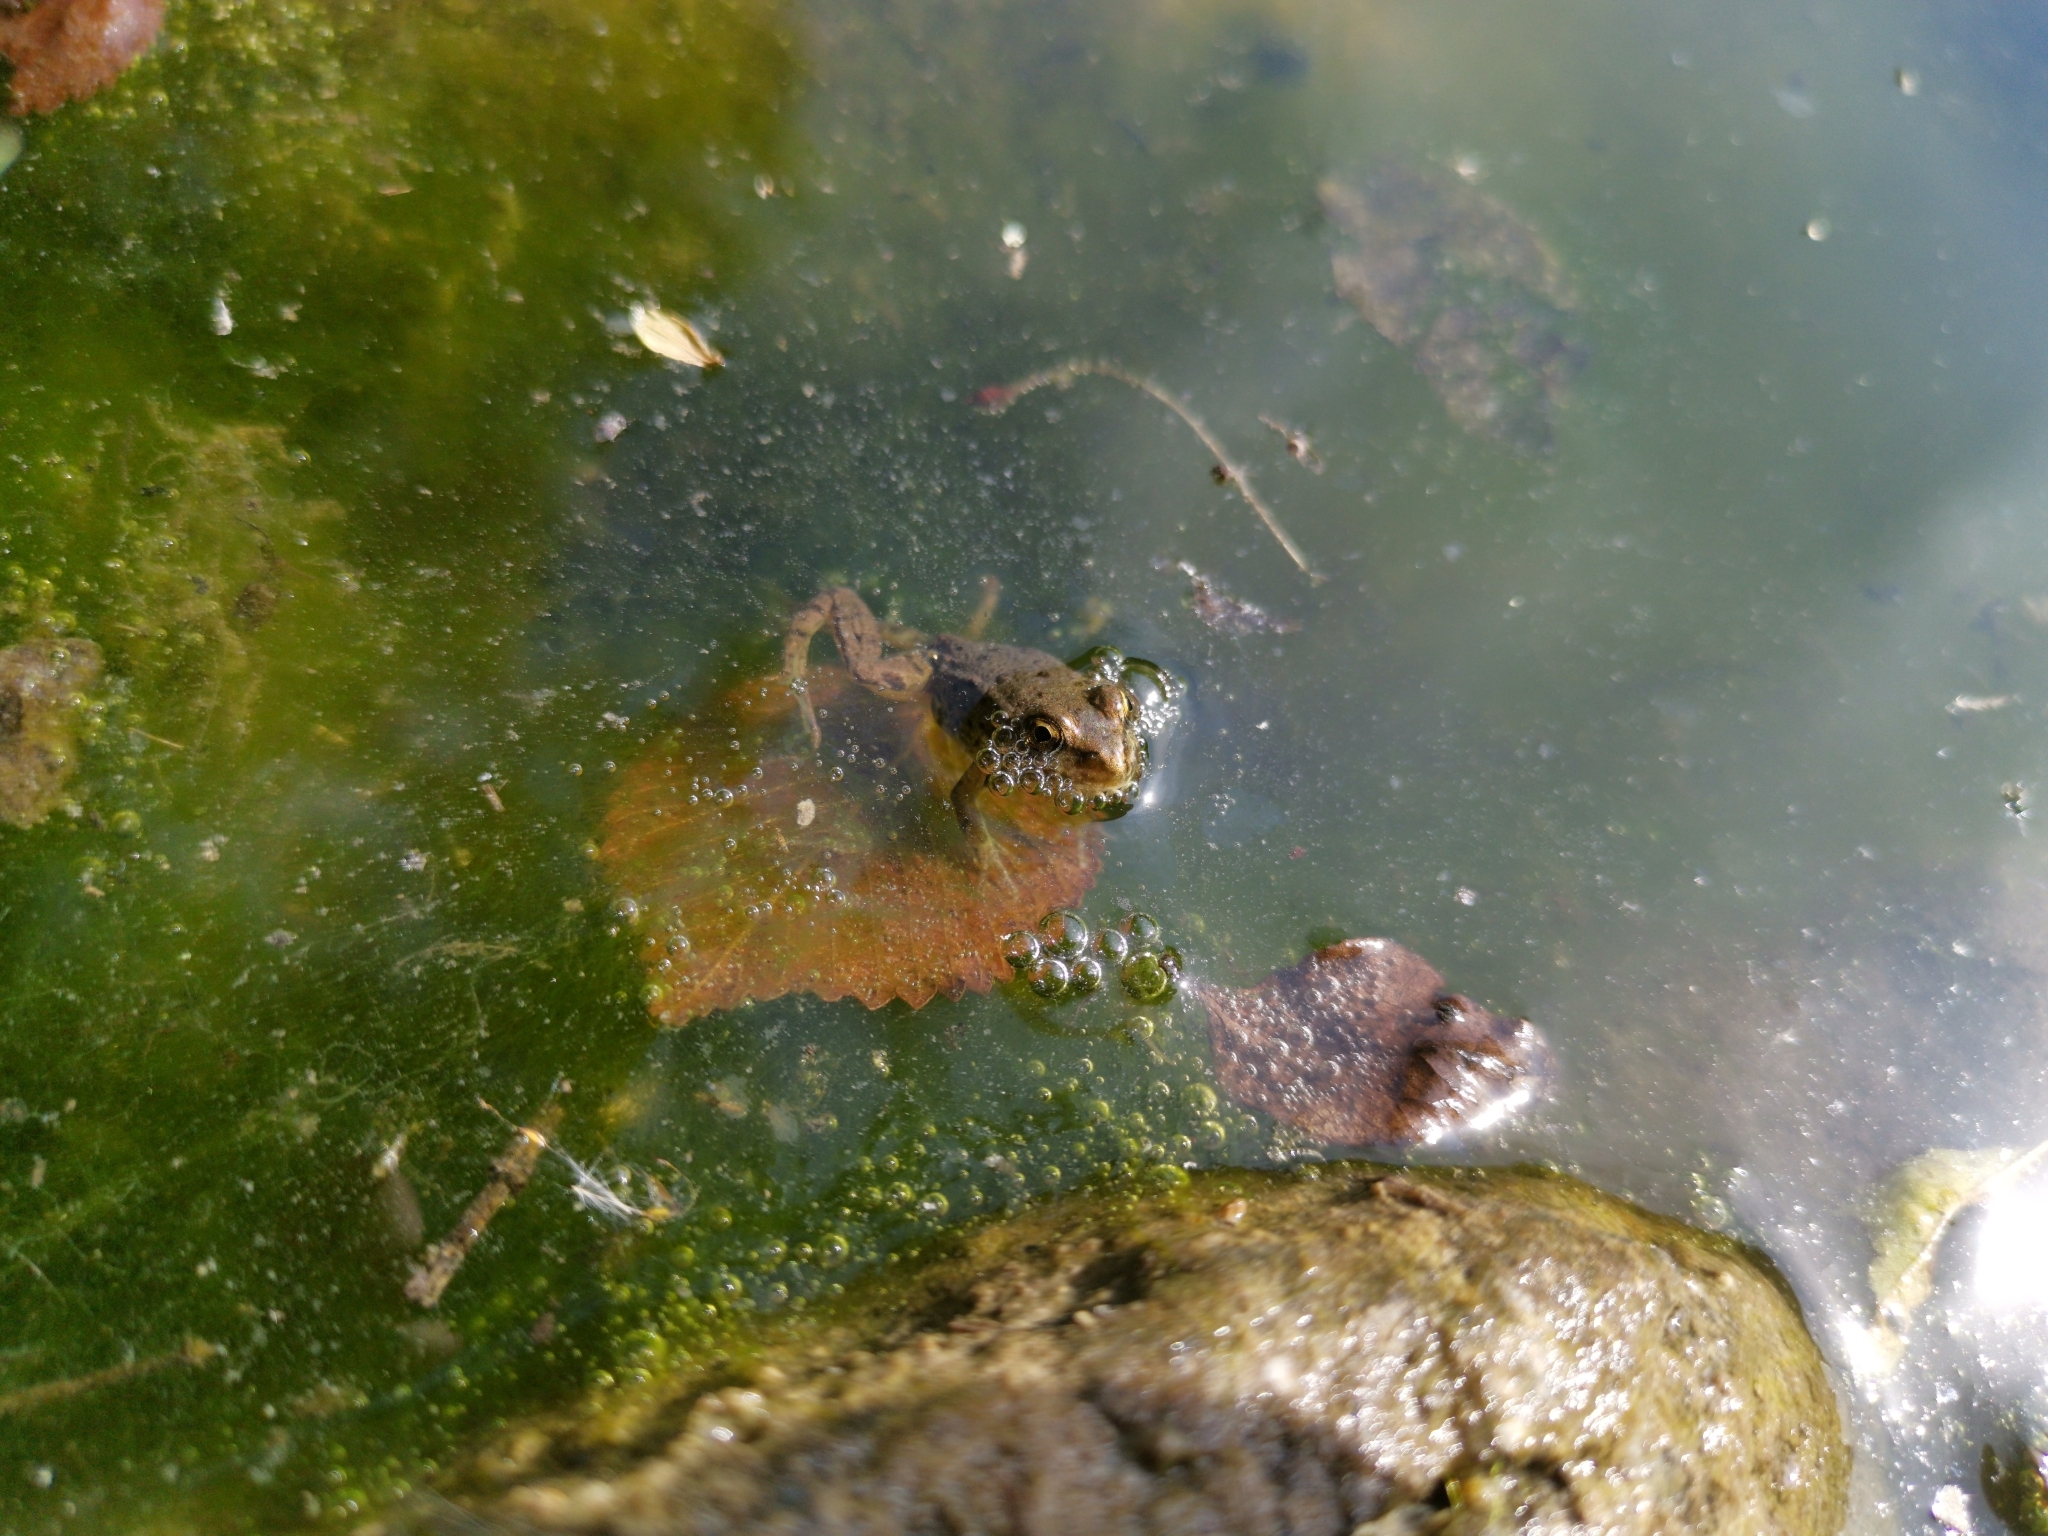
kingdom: Animalia
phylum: Chordata
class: Amphibia
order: Anura
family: Ranidae
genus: Pelophylax
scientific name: Pelophylax
